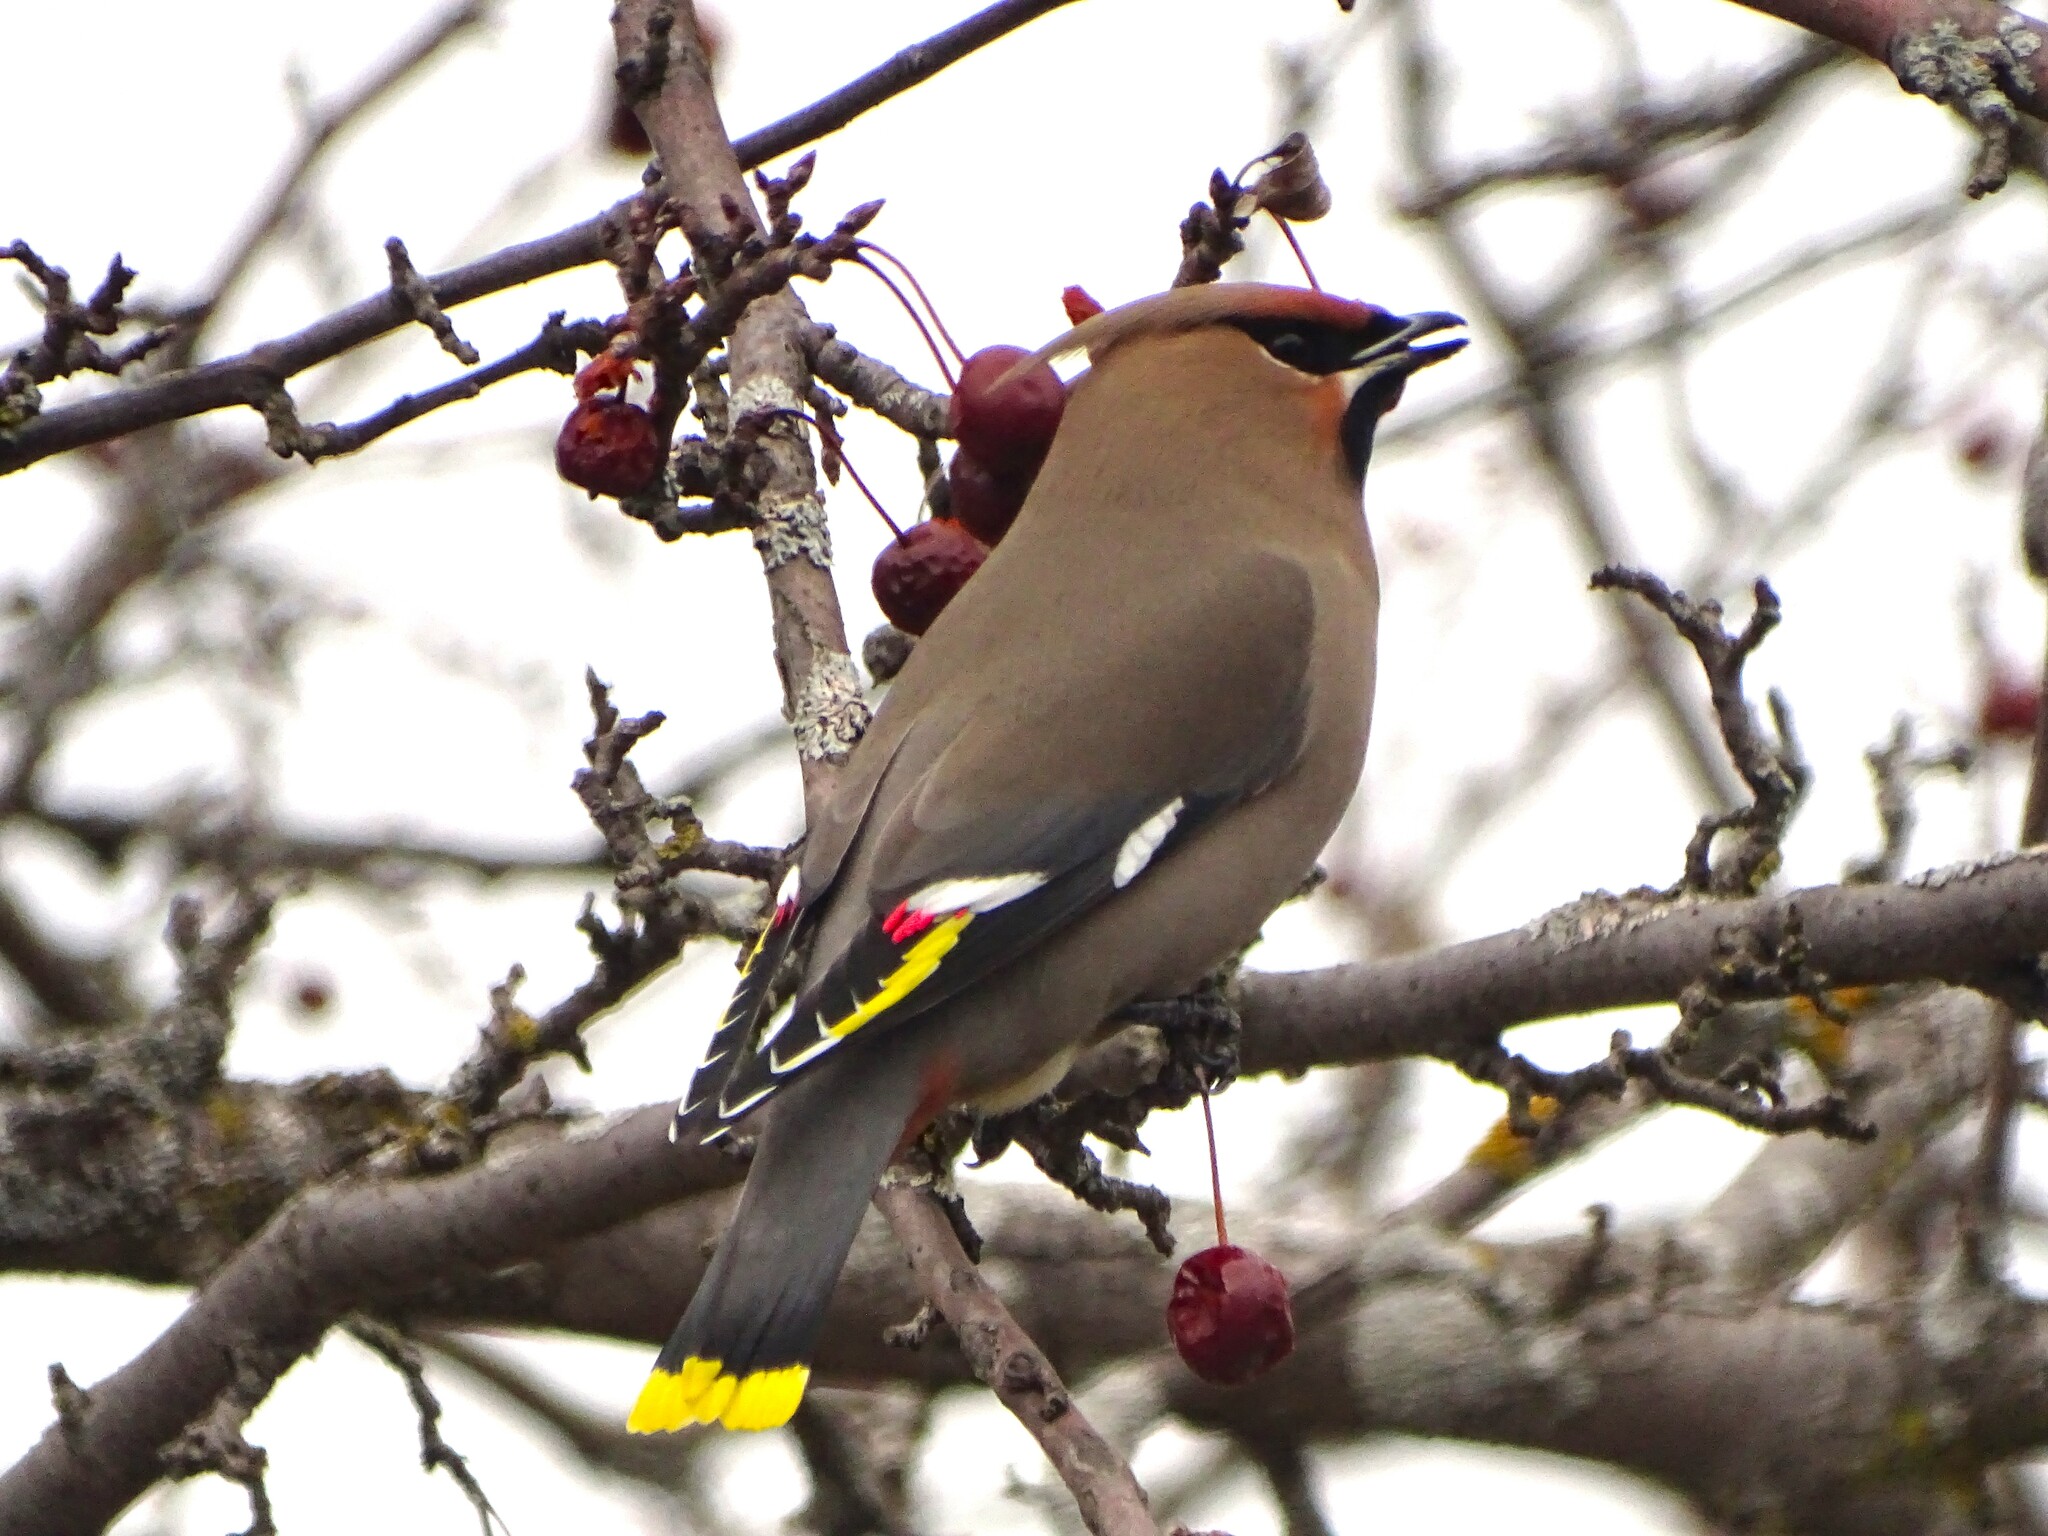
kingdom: Animalia
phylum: Chordata
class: Aves
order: Passeriformes
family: Bombycillidae
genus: Bombycilla
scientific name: Bombycilla garrulus
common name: Bohemian waxwing
